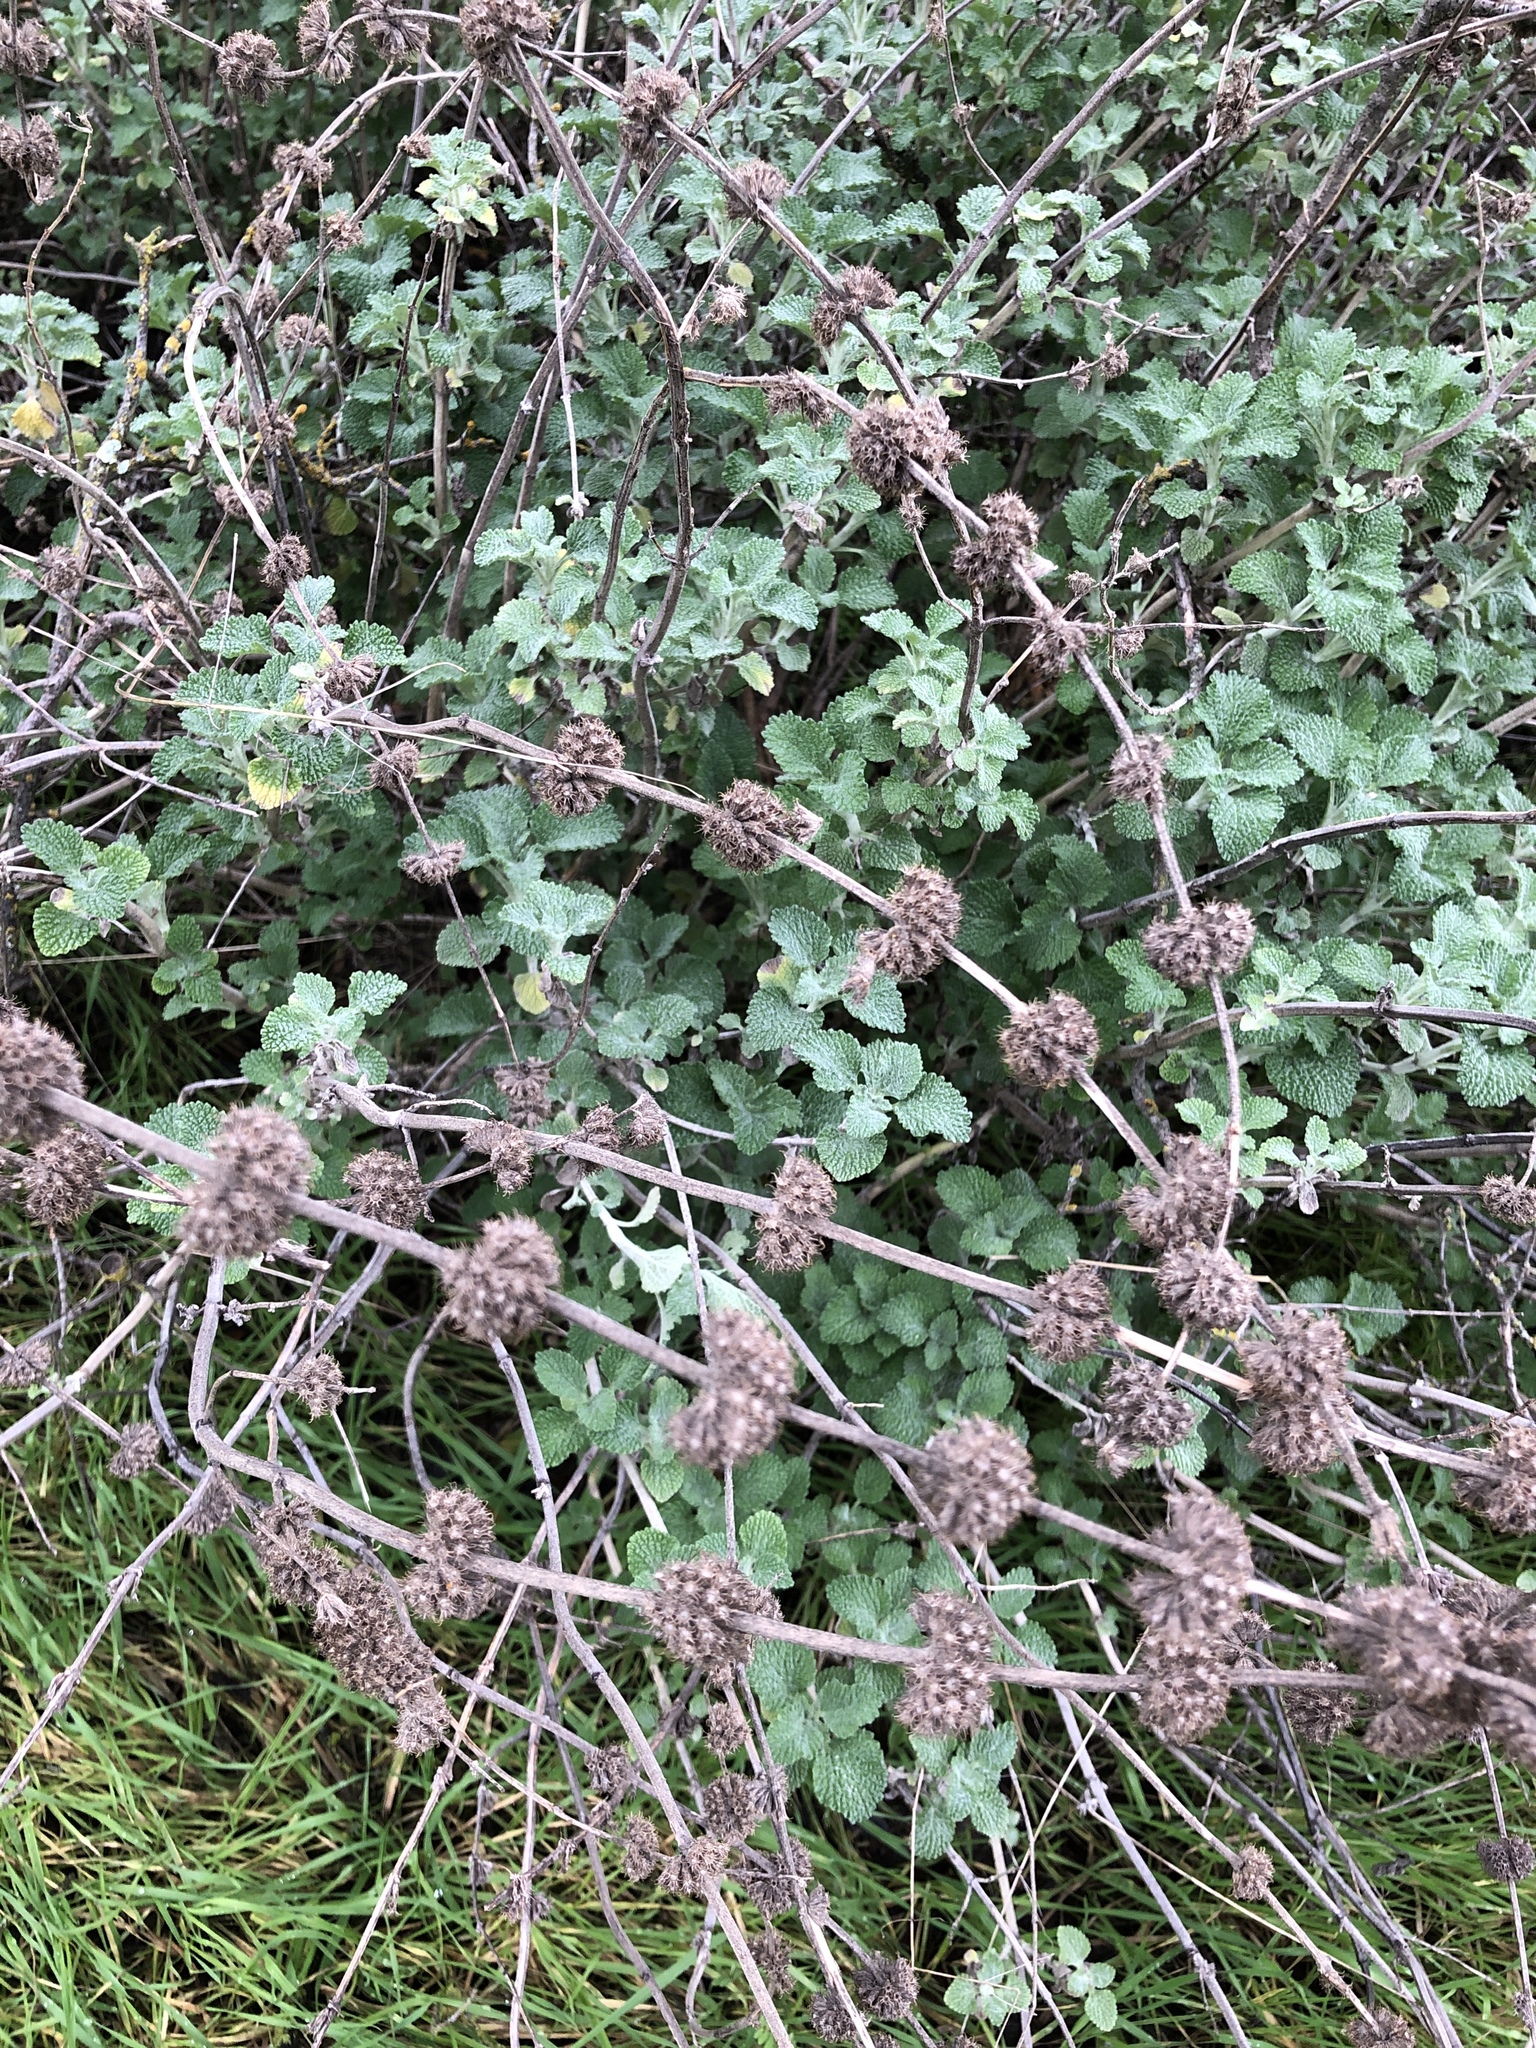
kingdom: Plantae
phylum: Tracheophyta
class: Magnoliopsida
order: Lamiales
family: Lamiaceae
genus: Marrubium
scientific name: Marrubium vulgare
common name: Horehound
